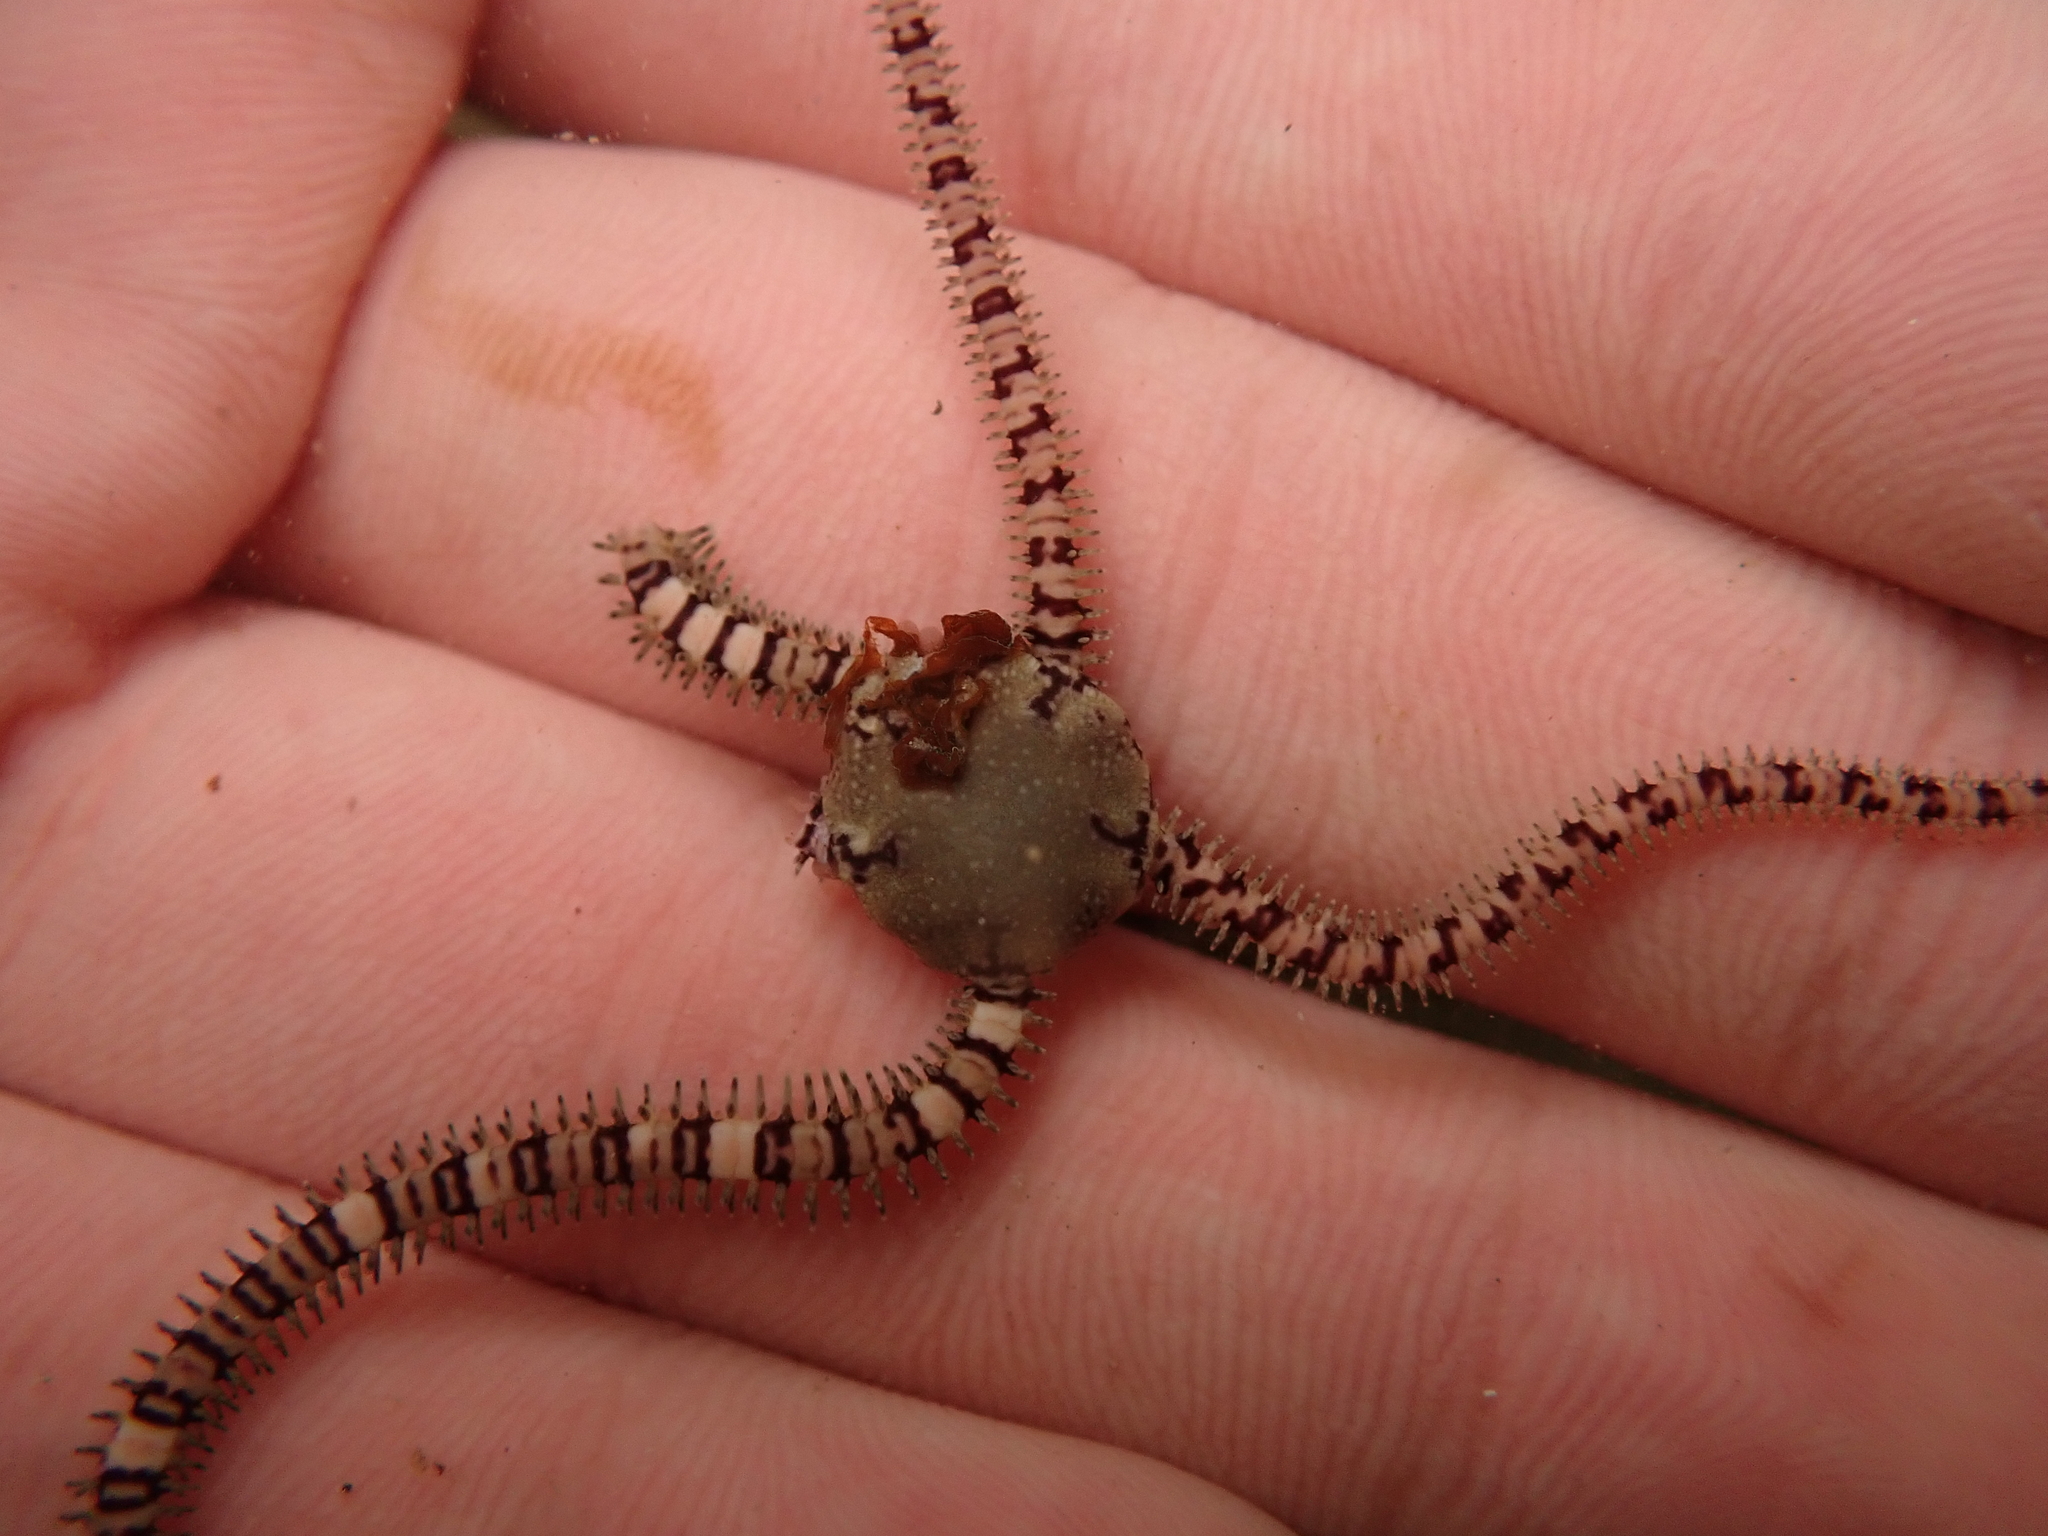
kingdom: Animalia
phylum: Echinodermata
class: Ophiuroidea
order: Amphilepidida
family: Ophionereididae
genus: Ophionereis
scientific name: Ophionereis fasciata
